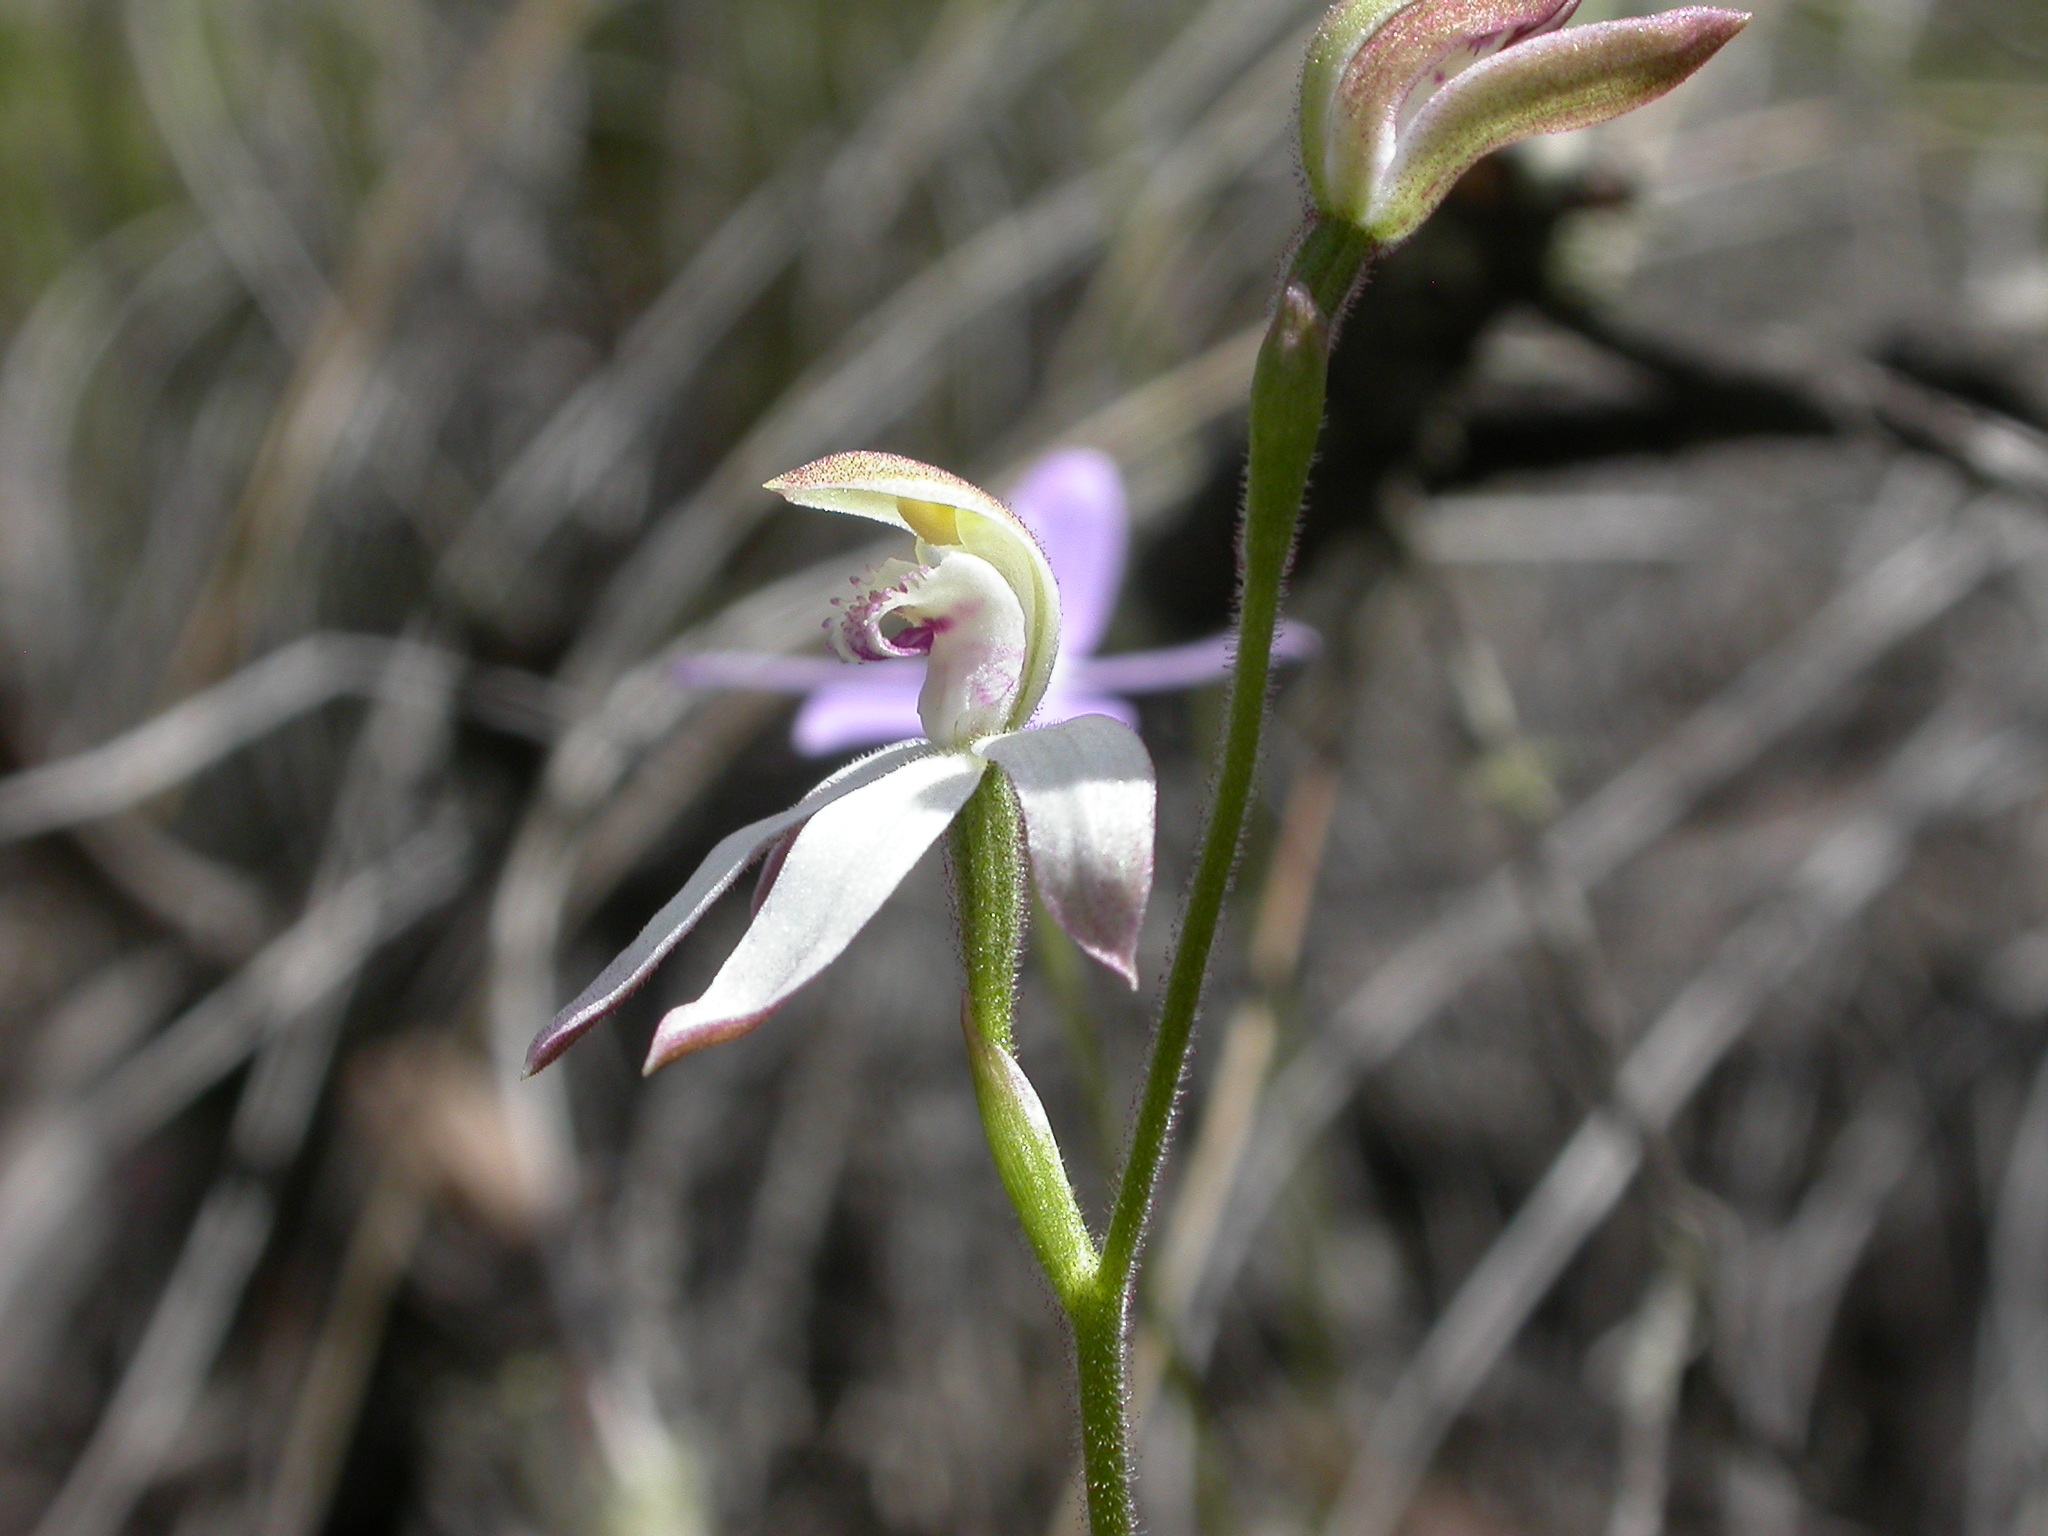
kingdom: Plantae
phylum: Tracheophyta
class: Liliopsida
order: Asparagales
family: Orchidaceae
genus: Caladenia
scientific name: Caladenia moschata
